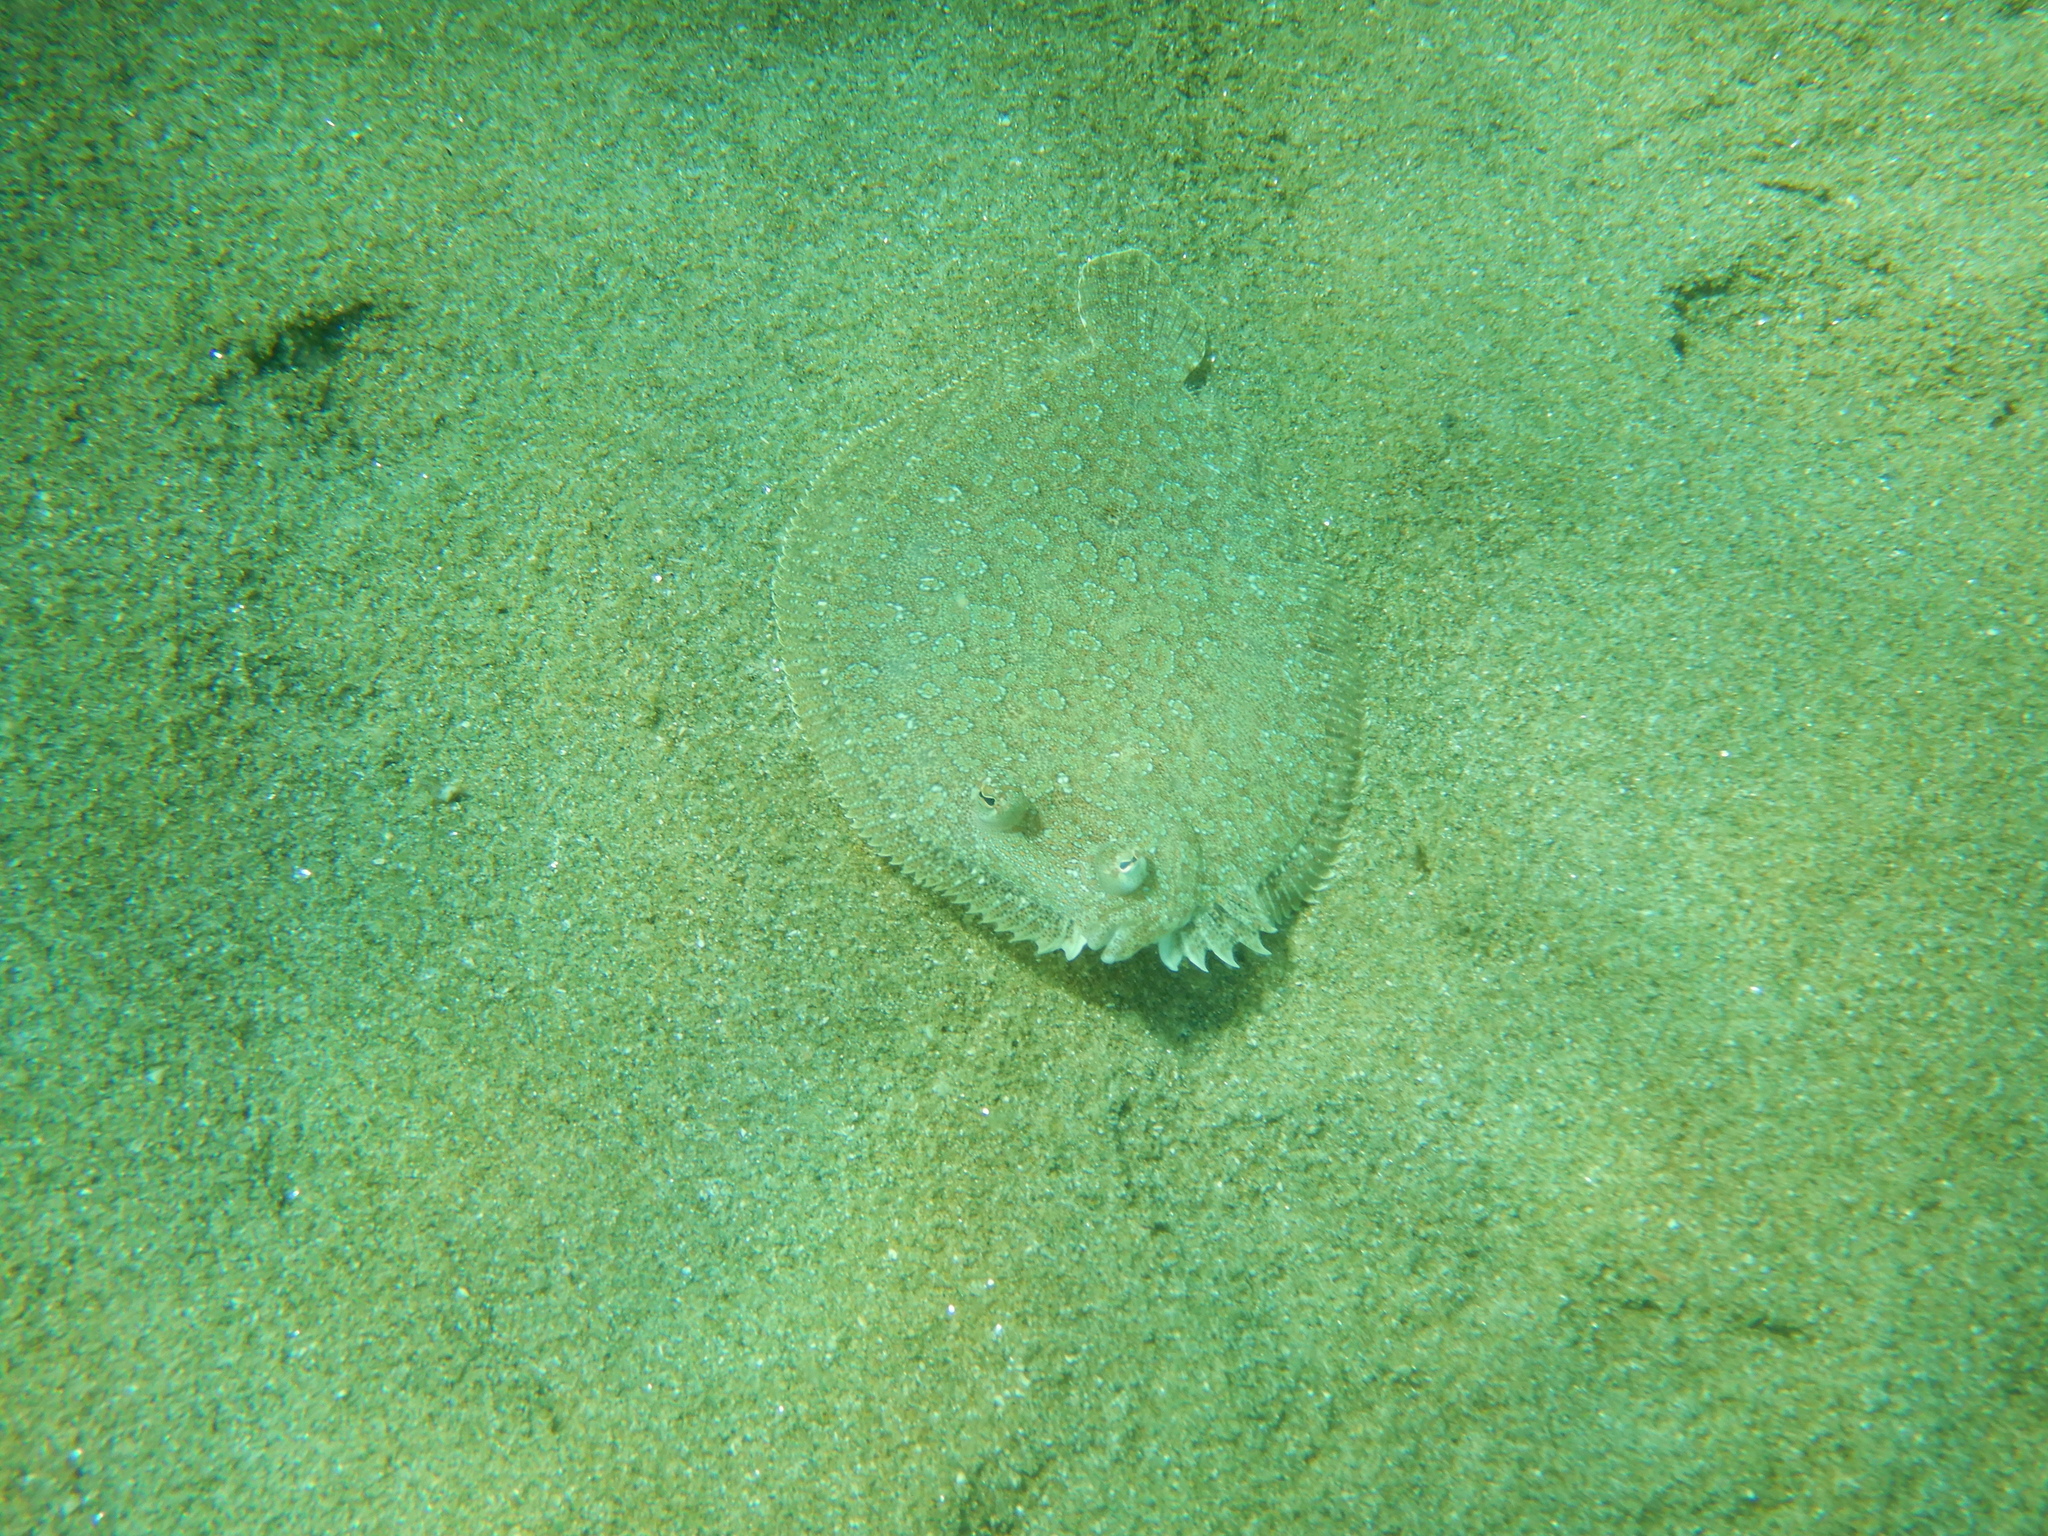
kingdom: Animalia
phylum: Chordata
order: Pleuronectiformes
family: Bothidae
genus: Bothus
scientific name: Bothus podas
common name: Wide-eyed flounder
